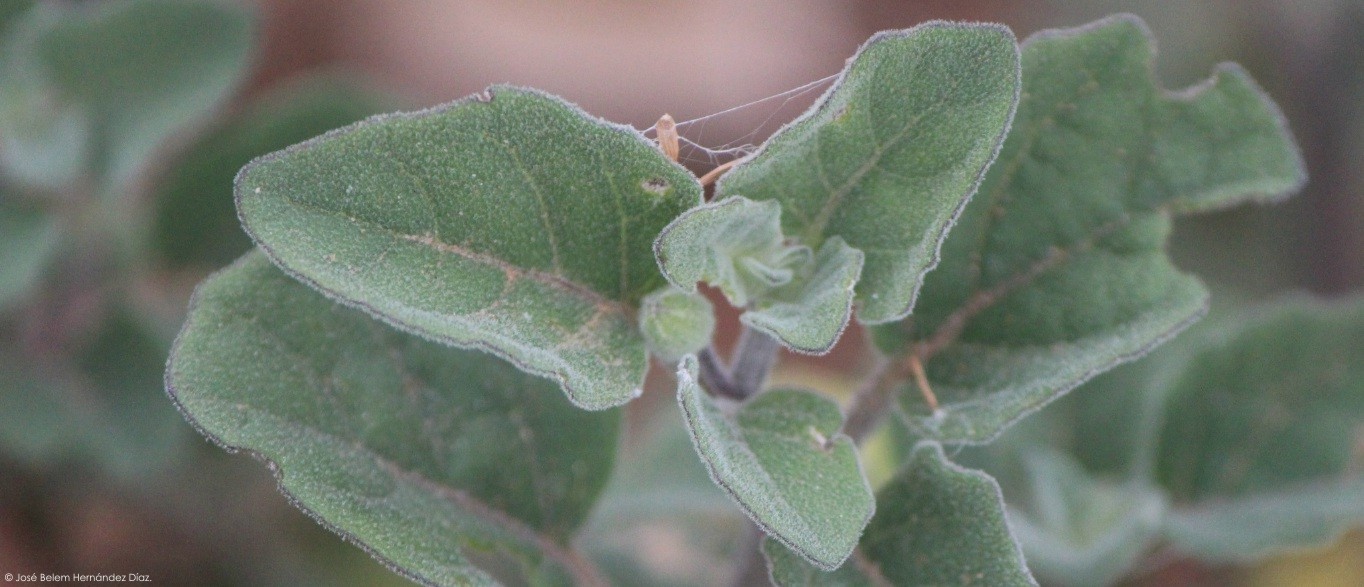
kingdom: Plantae
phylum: Tracheophyta
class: Magnoliopsida
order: Solanales
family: Solanaceae
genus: Physalis
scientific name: Physalis cinerascens
